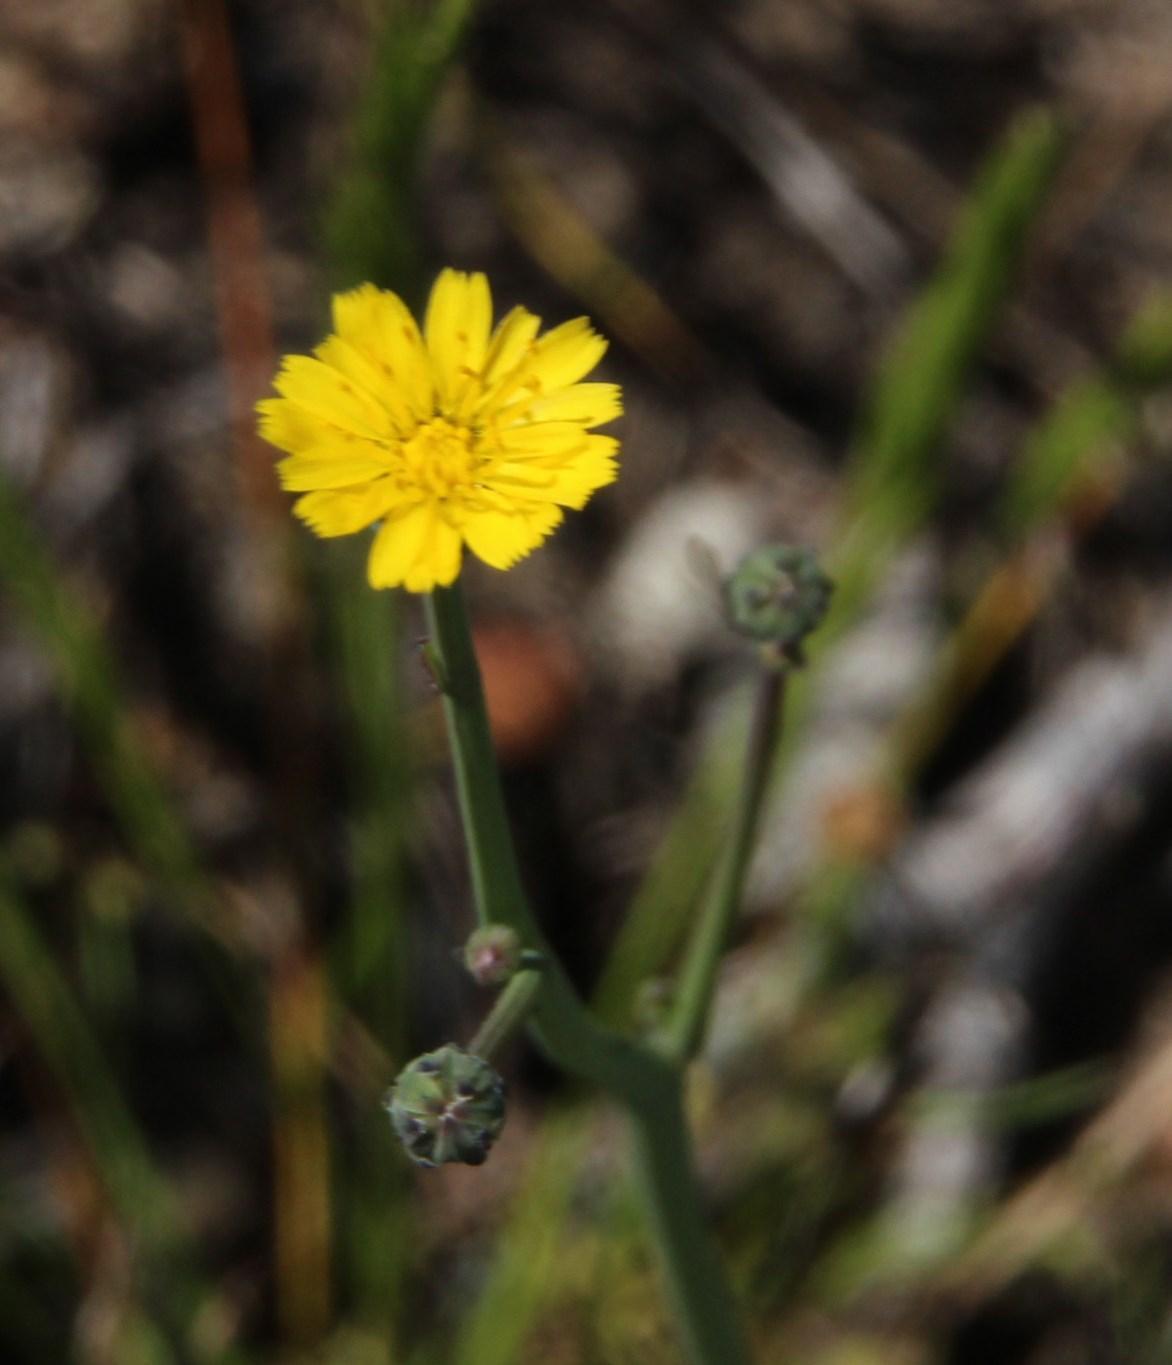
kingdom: Plantae
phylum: Tracheophyta
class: Magnoliopsida
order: Asterales
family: Asteraceae
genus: Hypochaeris
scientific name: Hypochaeris radicata
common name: Flatweed
